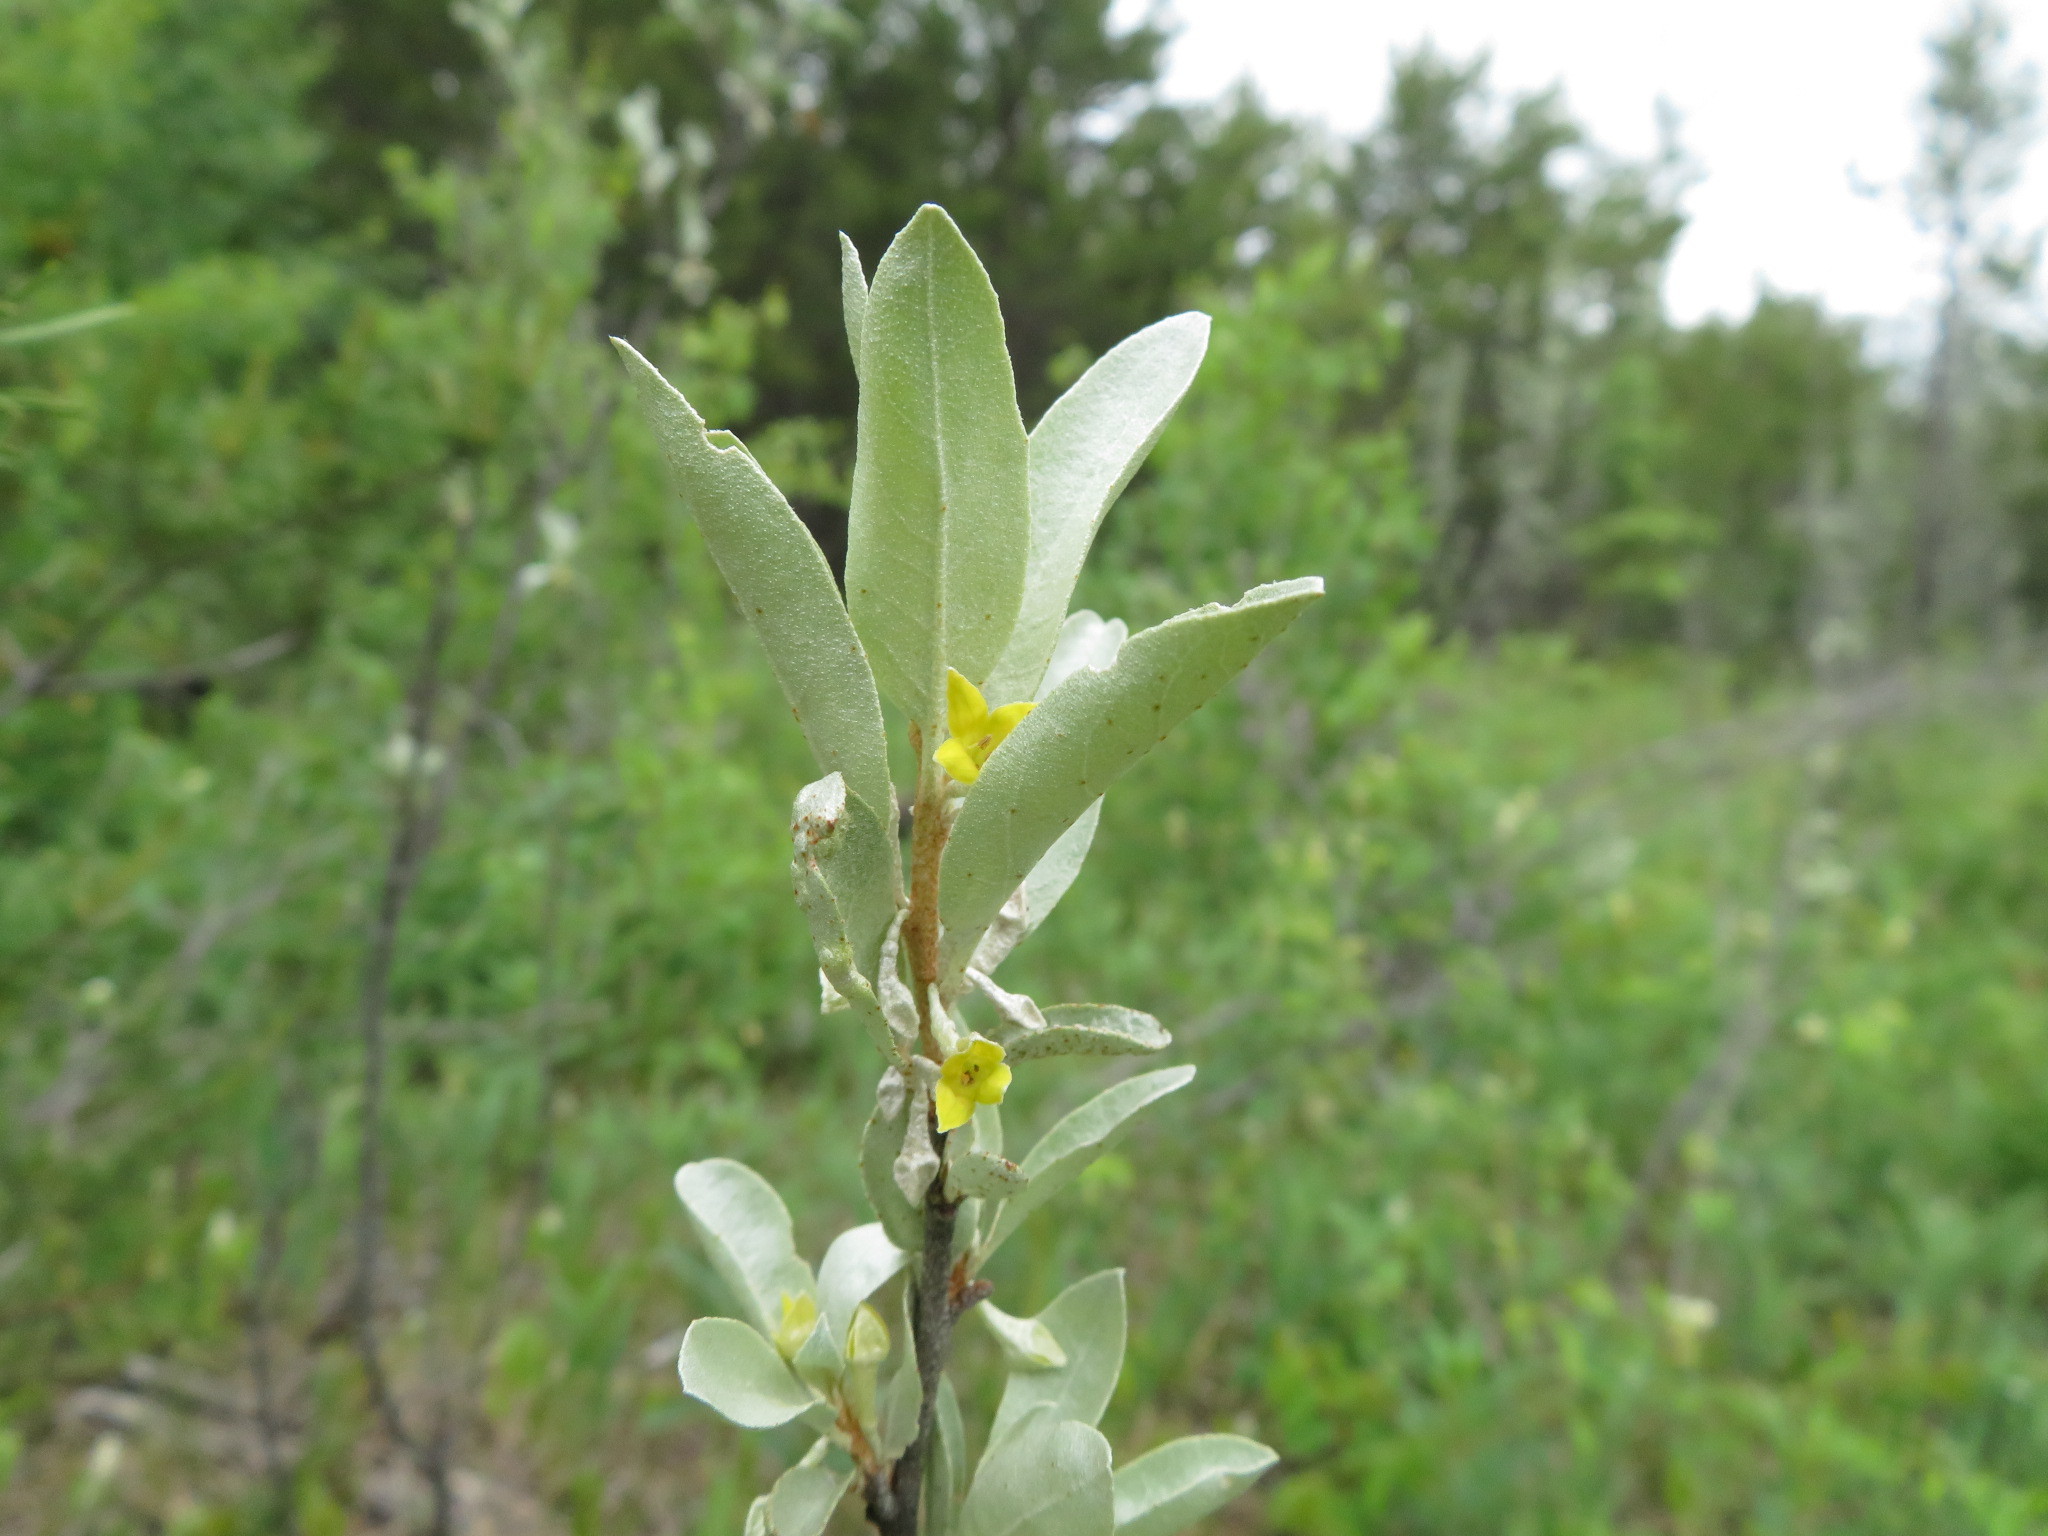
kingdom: Plantae
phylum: Tracheophyta
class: Magnoliopsida
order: Rosales
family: Elaeagnaceae
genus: Elaeagnus
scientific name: Elaeagnus commutata
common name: Silverberry
